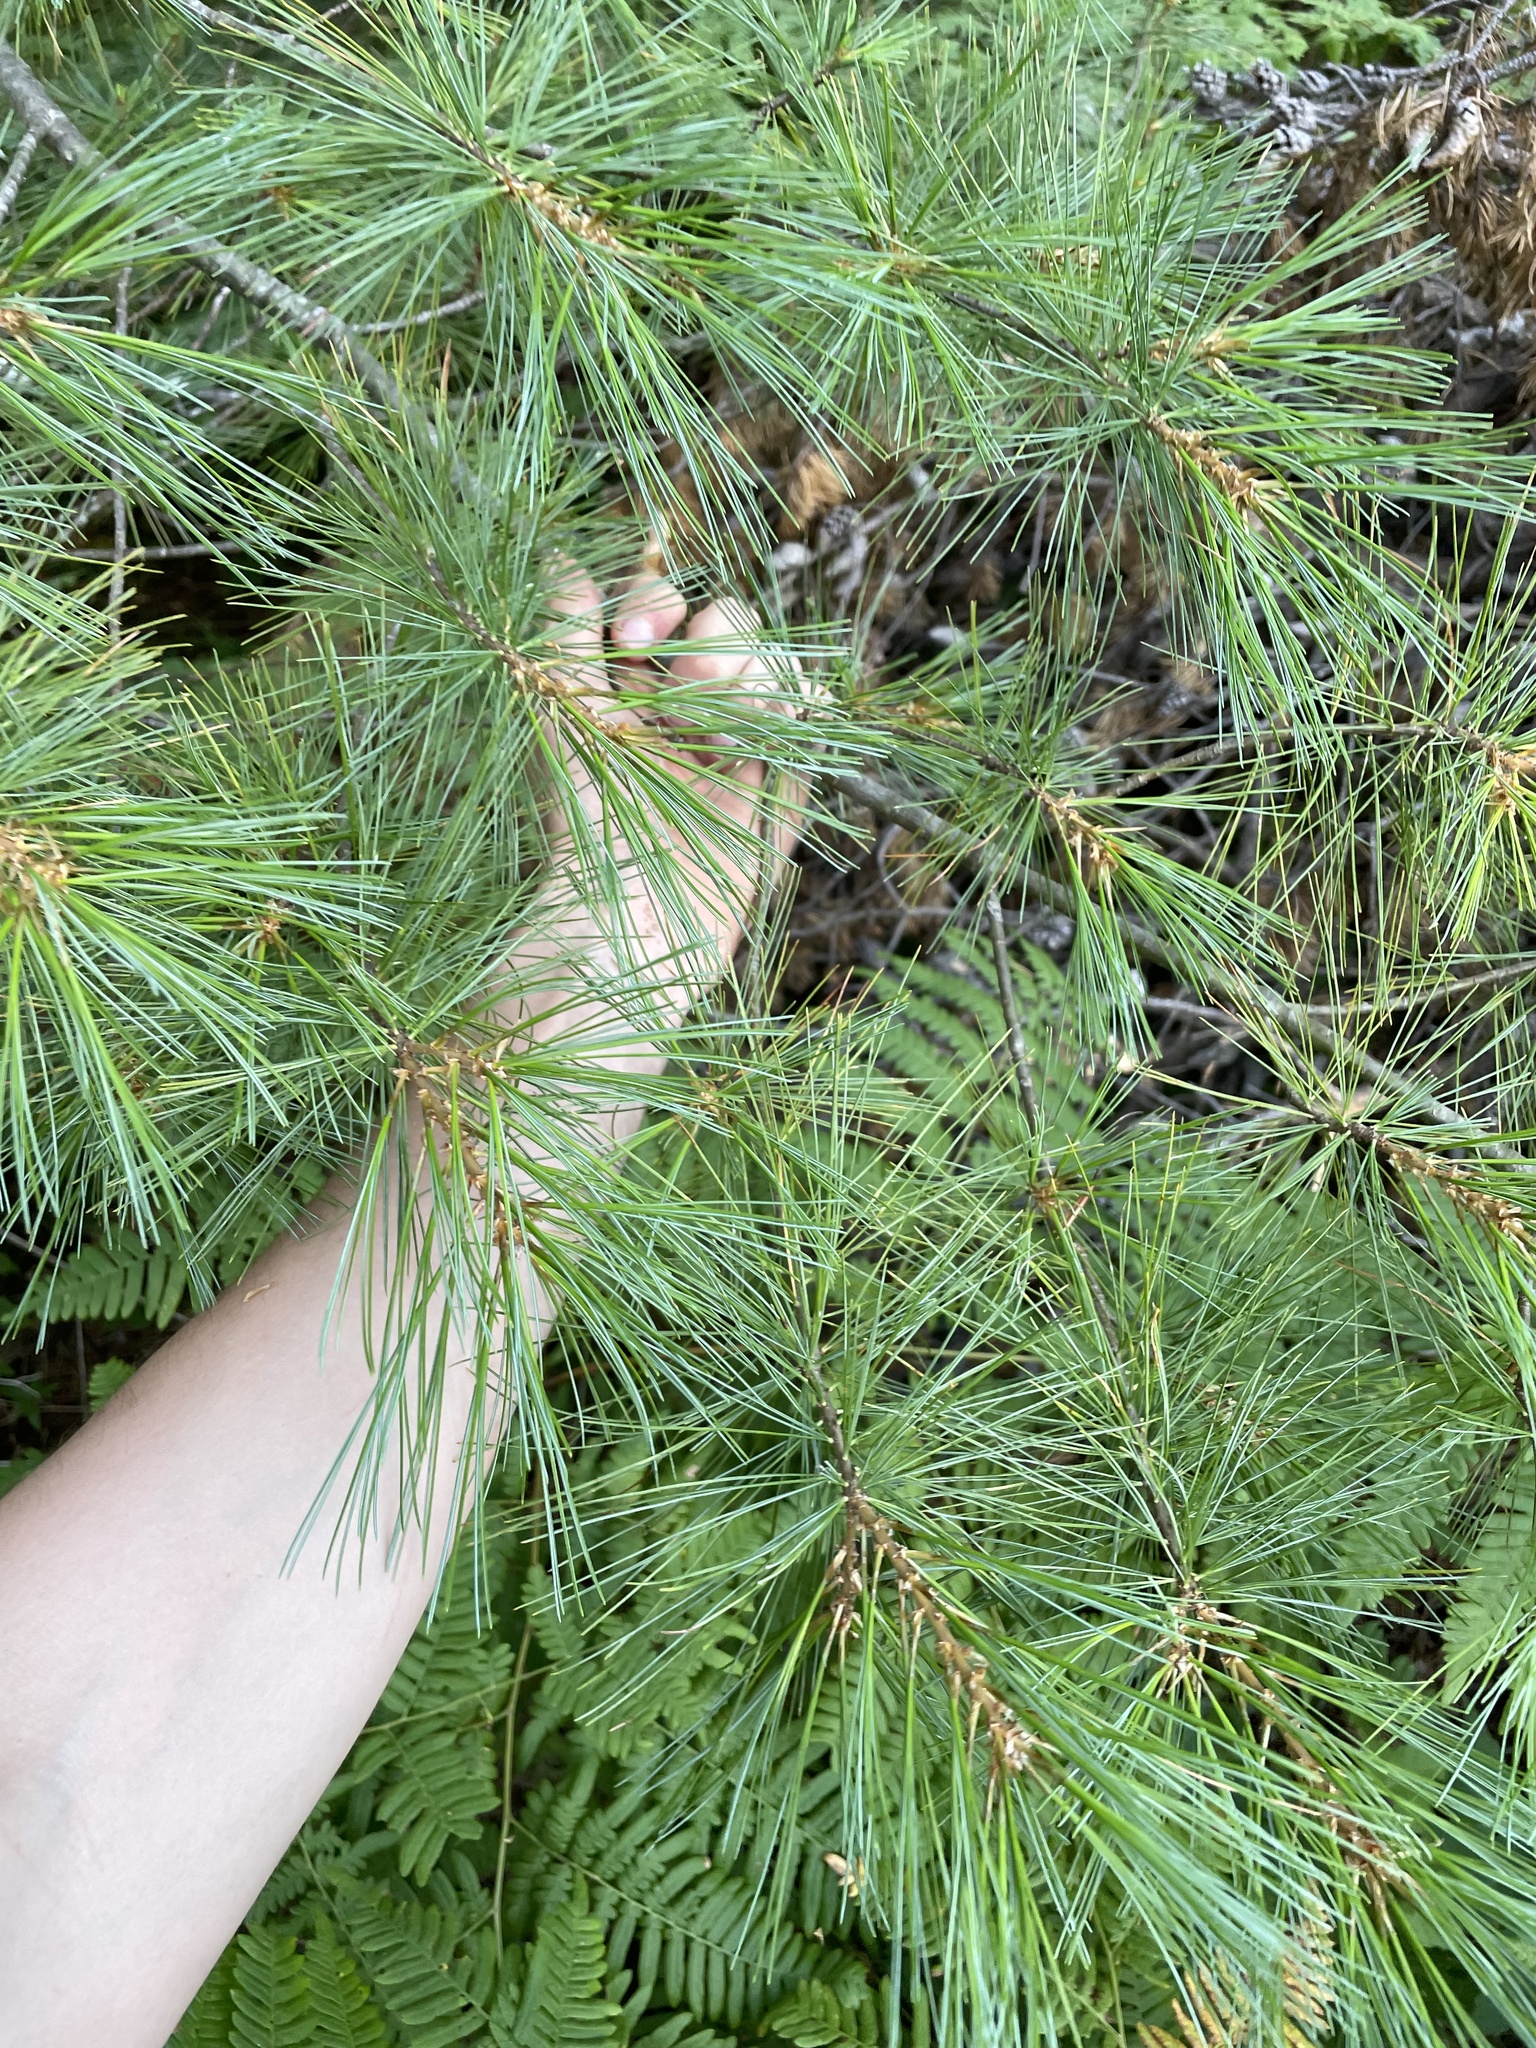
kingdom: Plantae
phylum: Tracheophyta
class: Pinopsida
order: Pinales
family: Pinaceae
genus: Pinus
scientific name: Pinus strobus
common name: Weymouth pine
